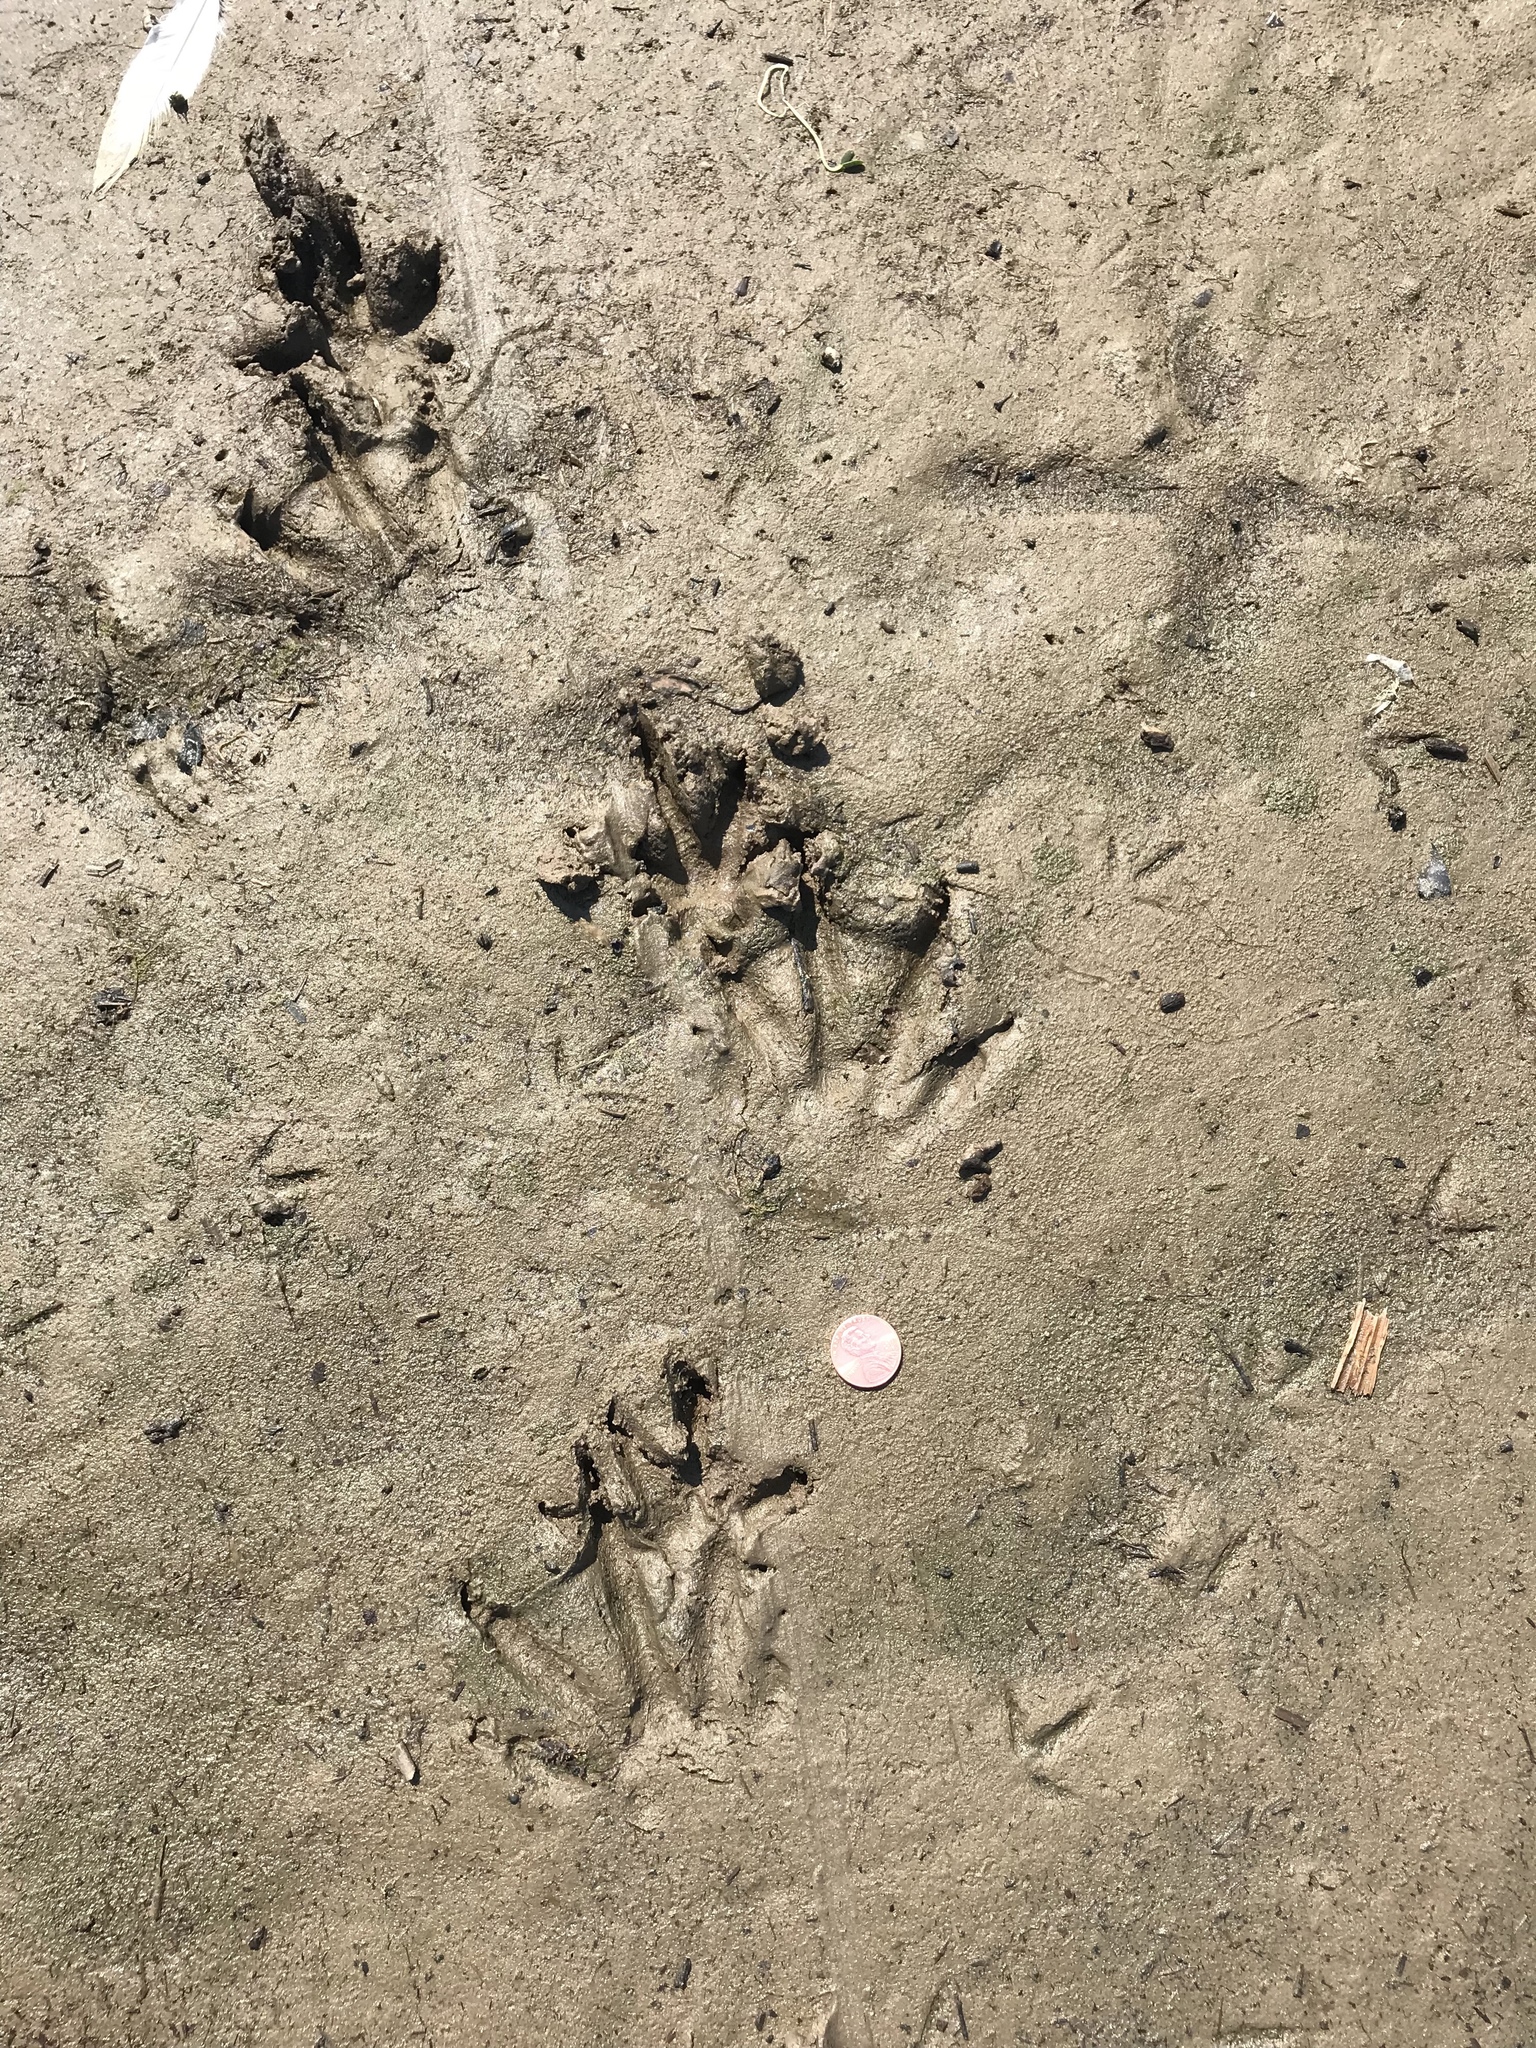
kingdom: Animalia
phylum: Chordata
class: Mammalia
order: Rodentia
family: Myocastoridae
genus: Myocastor
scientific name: Myocastor coypus
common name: Coypu
